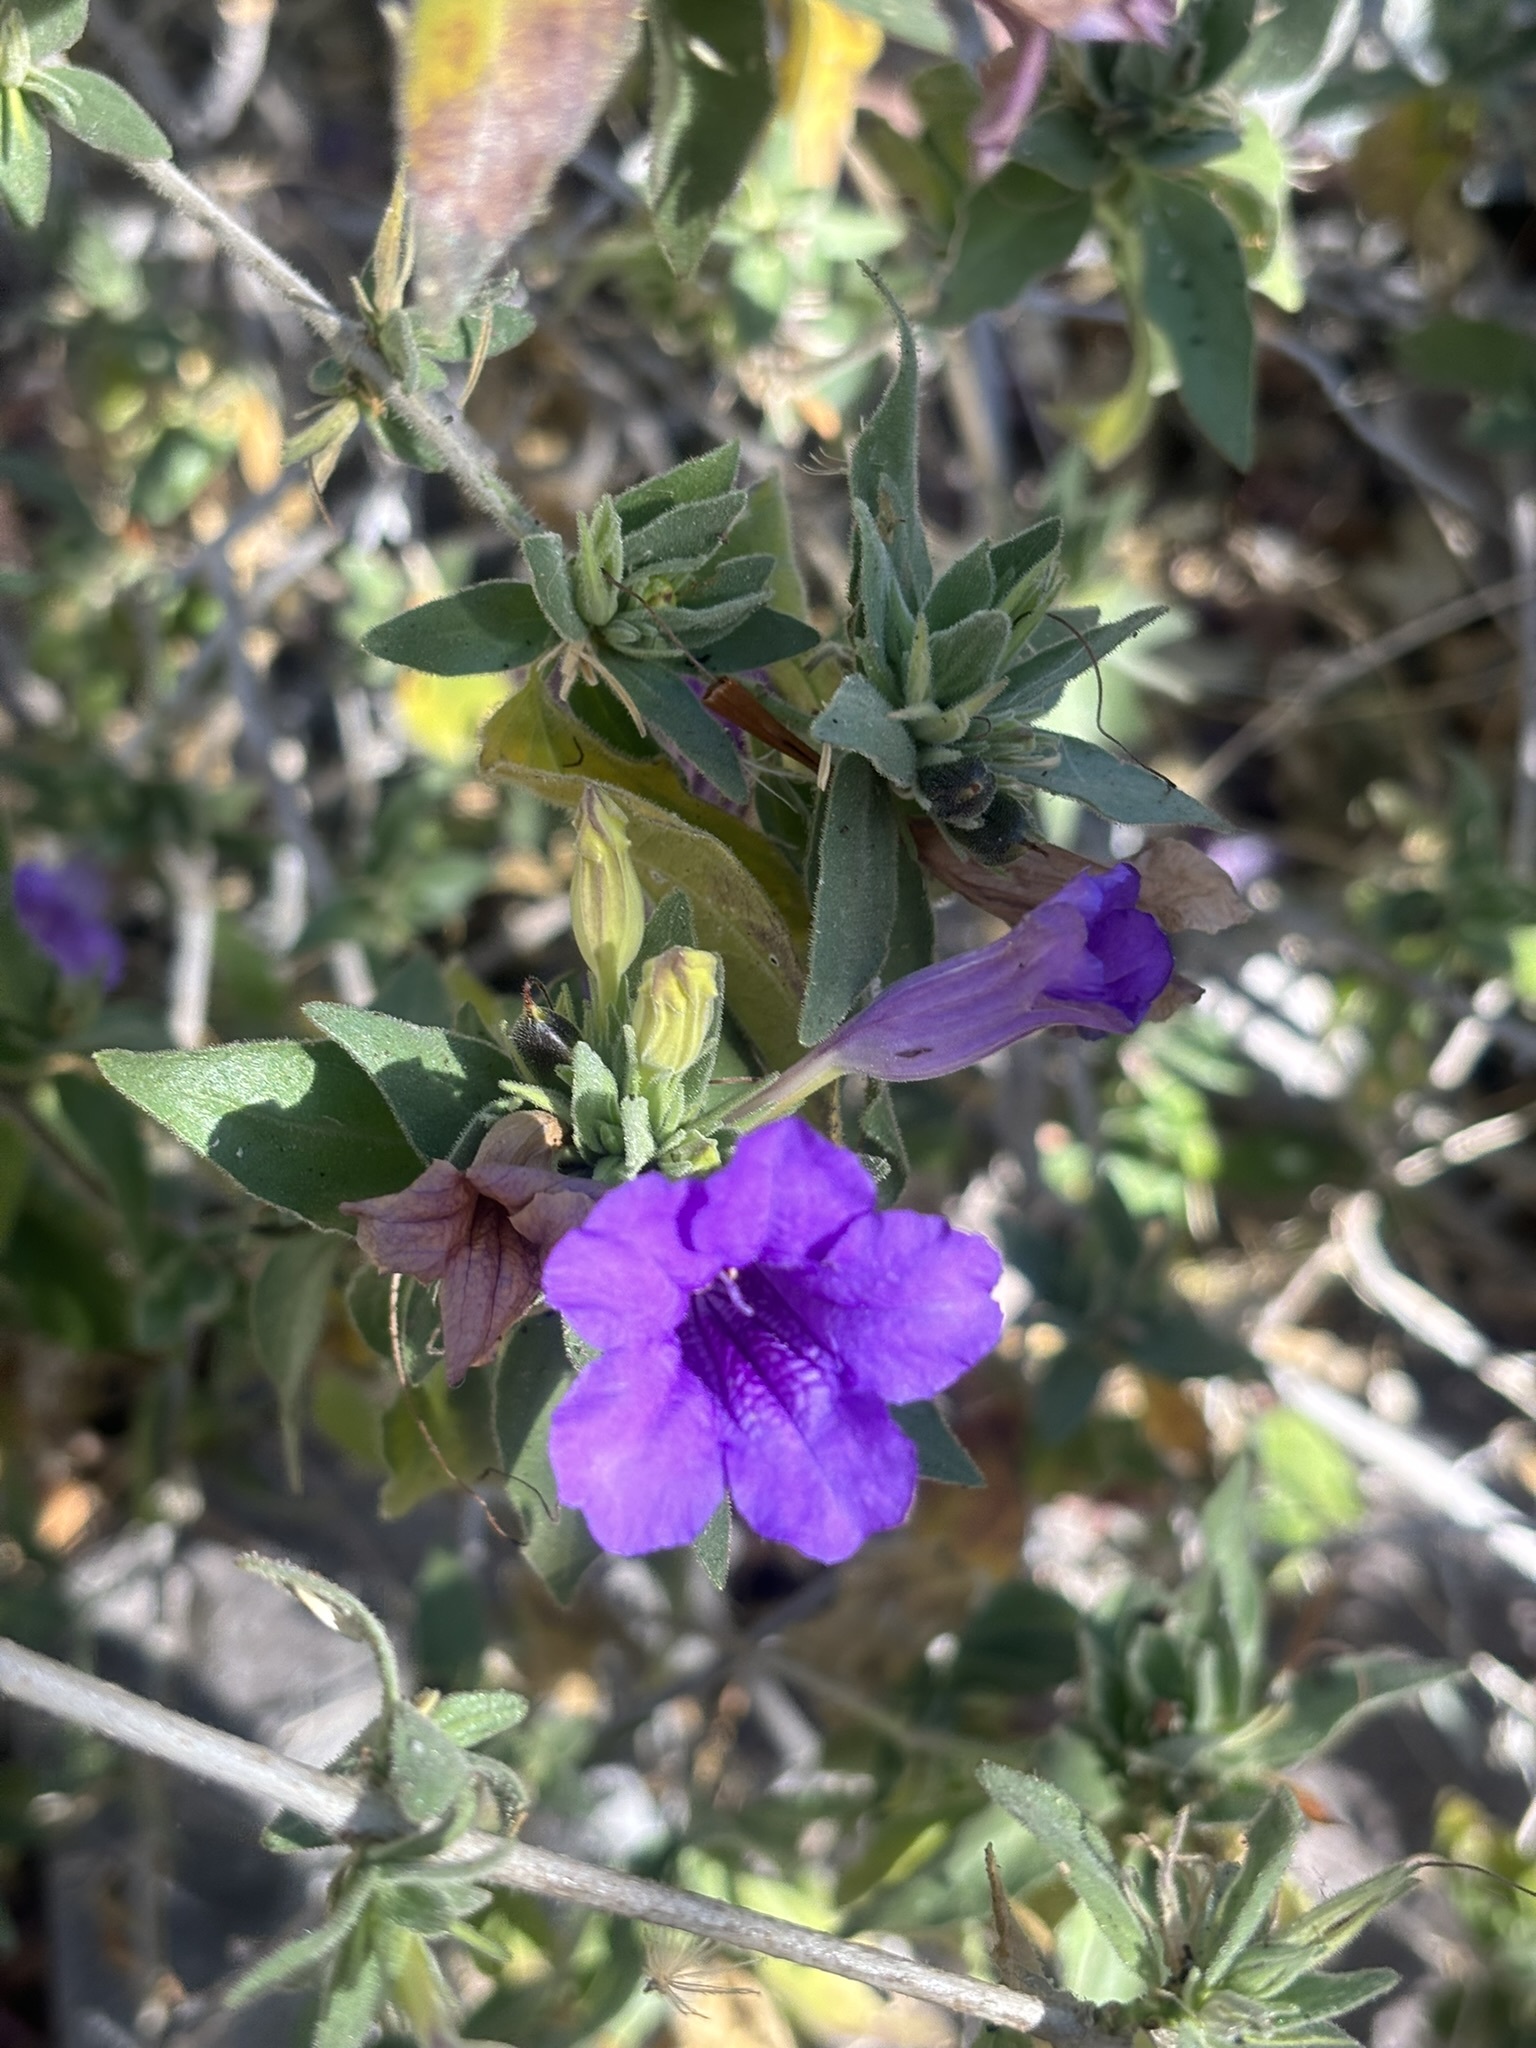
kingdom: Plantae
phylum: Tracheophyta
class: Magnoliopsida
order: Lamiales
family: Acanthaceae
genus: Ruellia
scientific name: Ruellia californica
